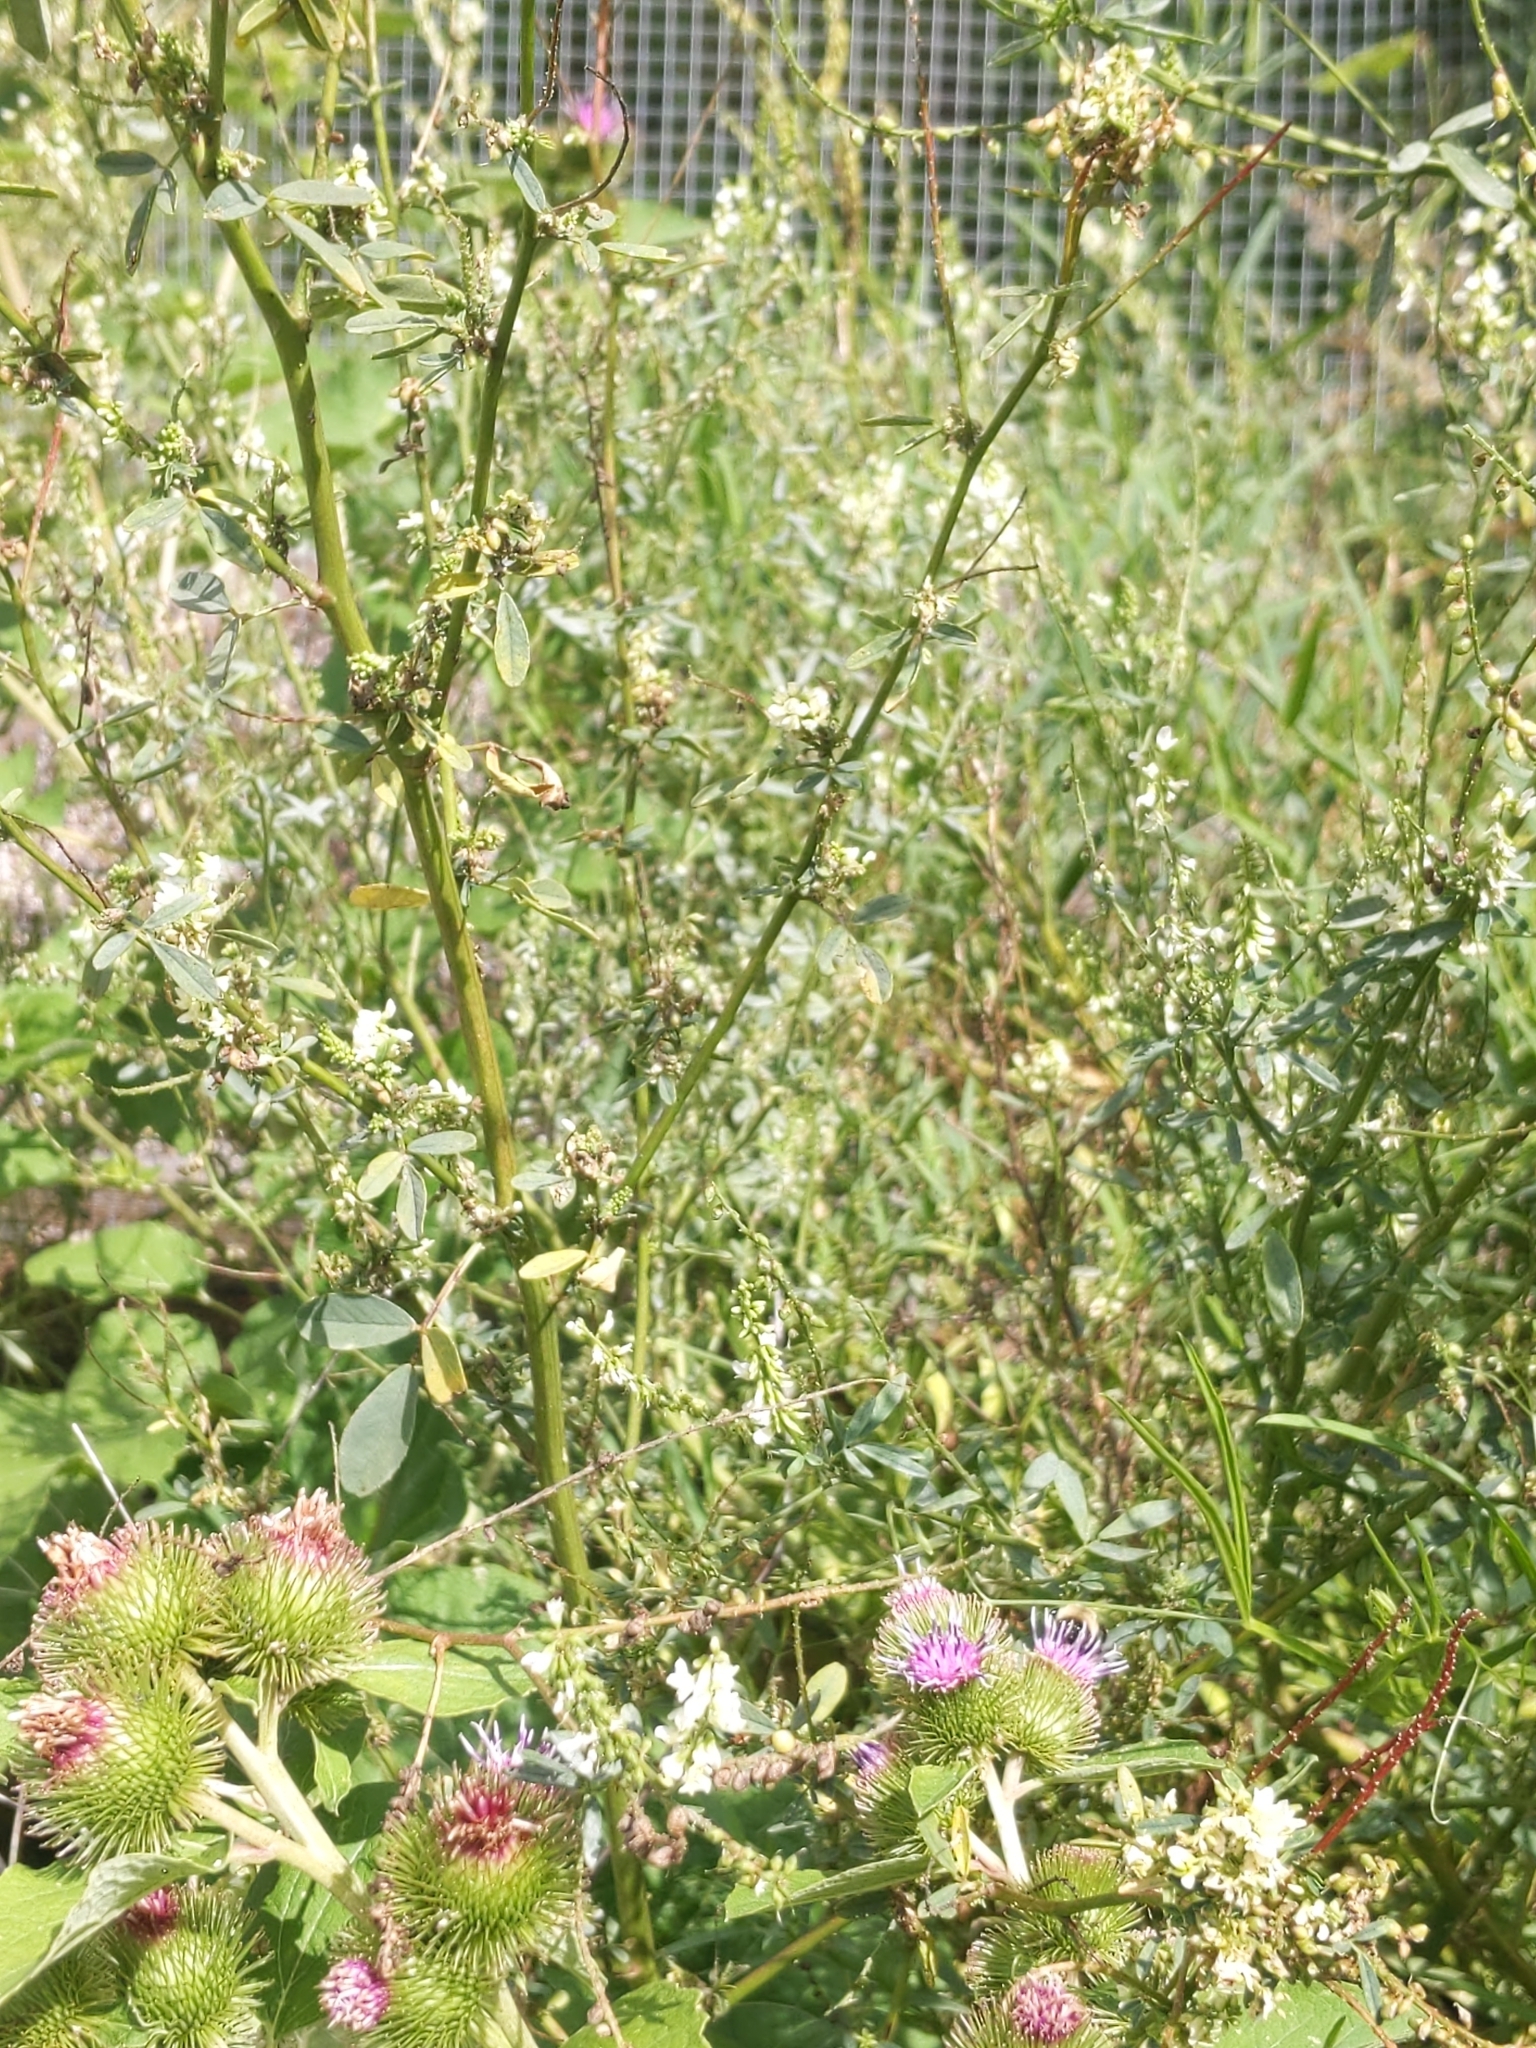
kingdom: Plantae
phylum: Tracheophyta
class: Magnoliopsida
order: Fabales
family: Fabaceae
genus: Melilotus
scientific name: Melilotus albus
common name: White melilot
